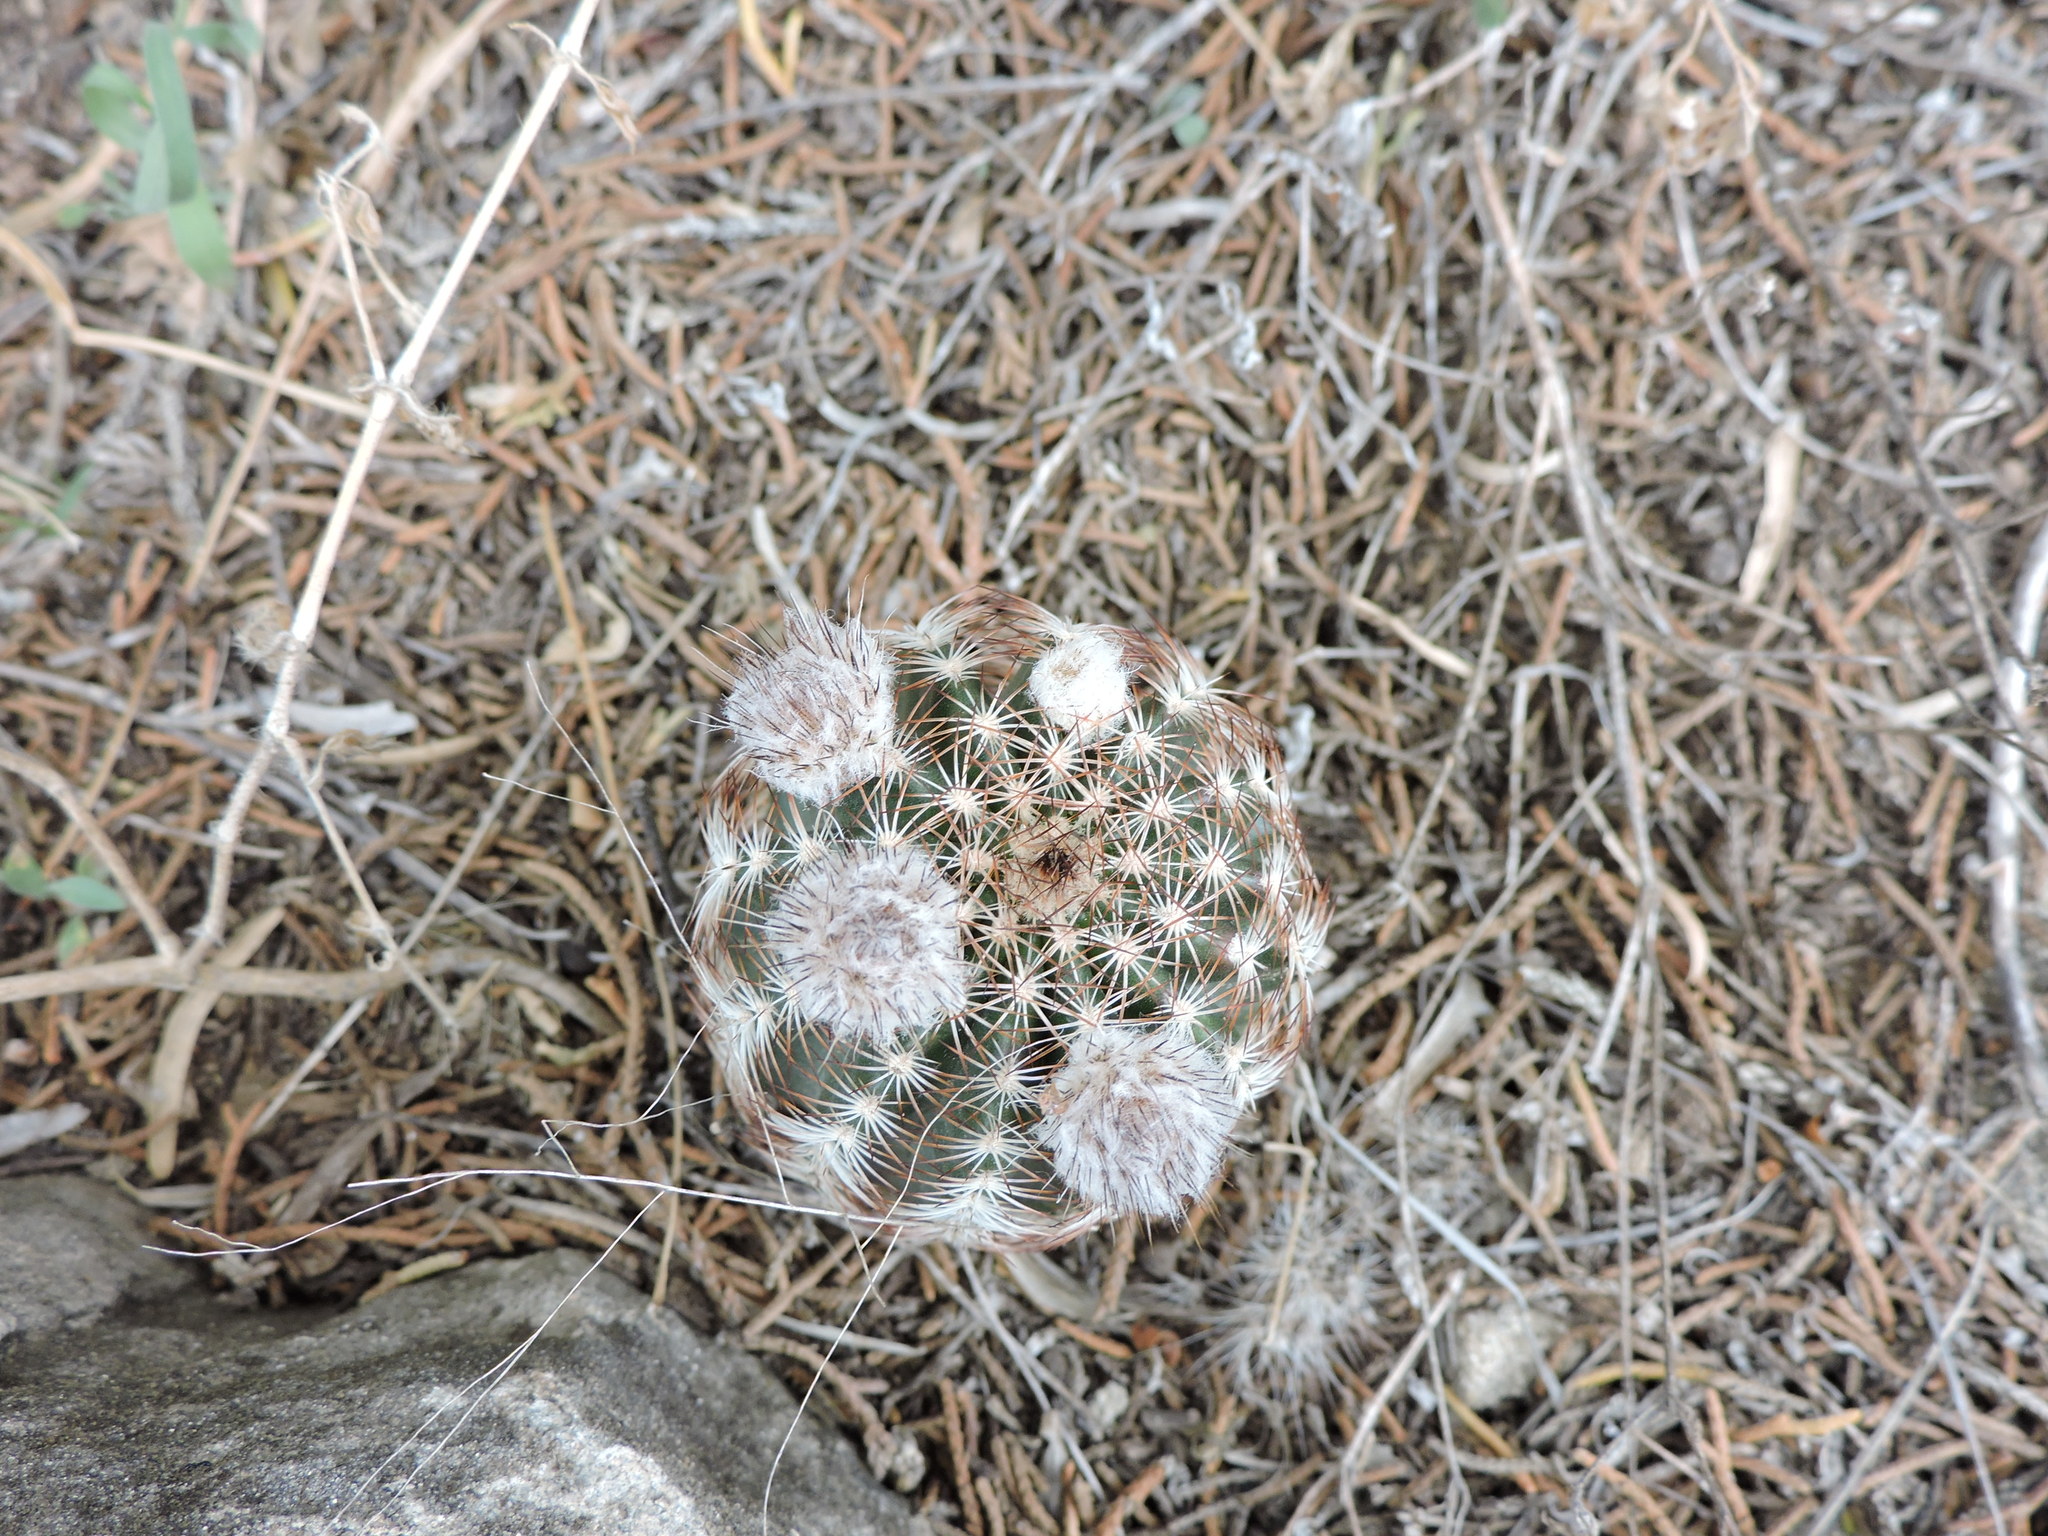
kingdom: Plantae
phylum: Tracheophyta
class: Magnoliopsida
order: Caryophyllales
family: Cactaceae
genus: Echinocereus
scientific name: Echinocereus reichenbachii
